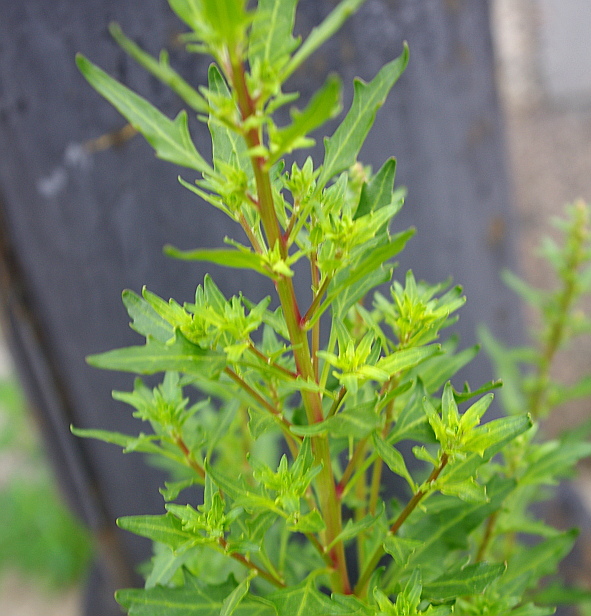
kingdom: Plantae
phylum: Tracheophyta
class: Magnoliopsida
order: Caryophyllales
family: Amaranthaceae
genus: Oxybasis
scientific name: Oxybasis rubra
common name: Red goosefoot
